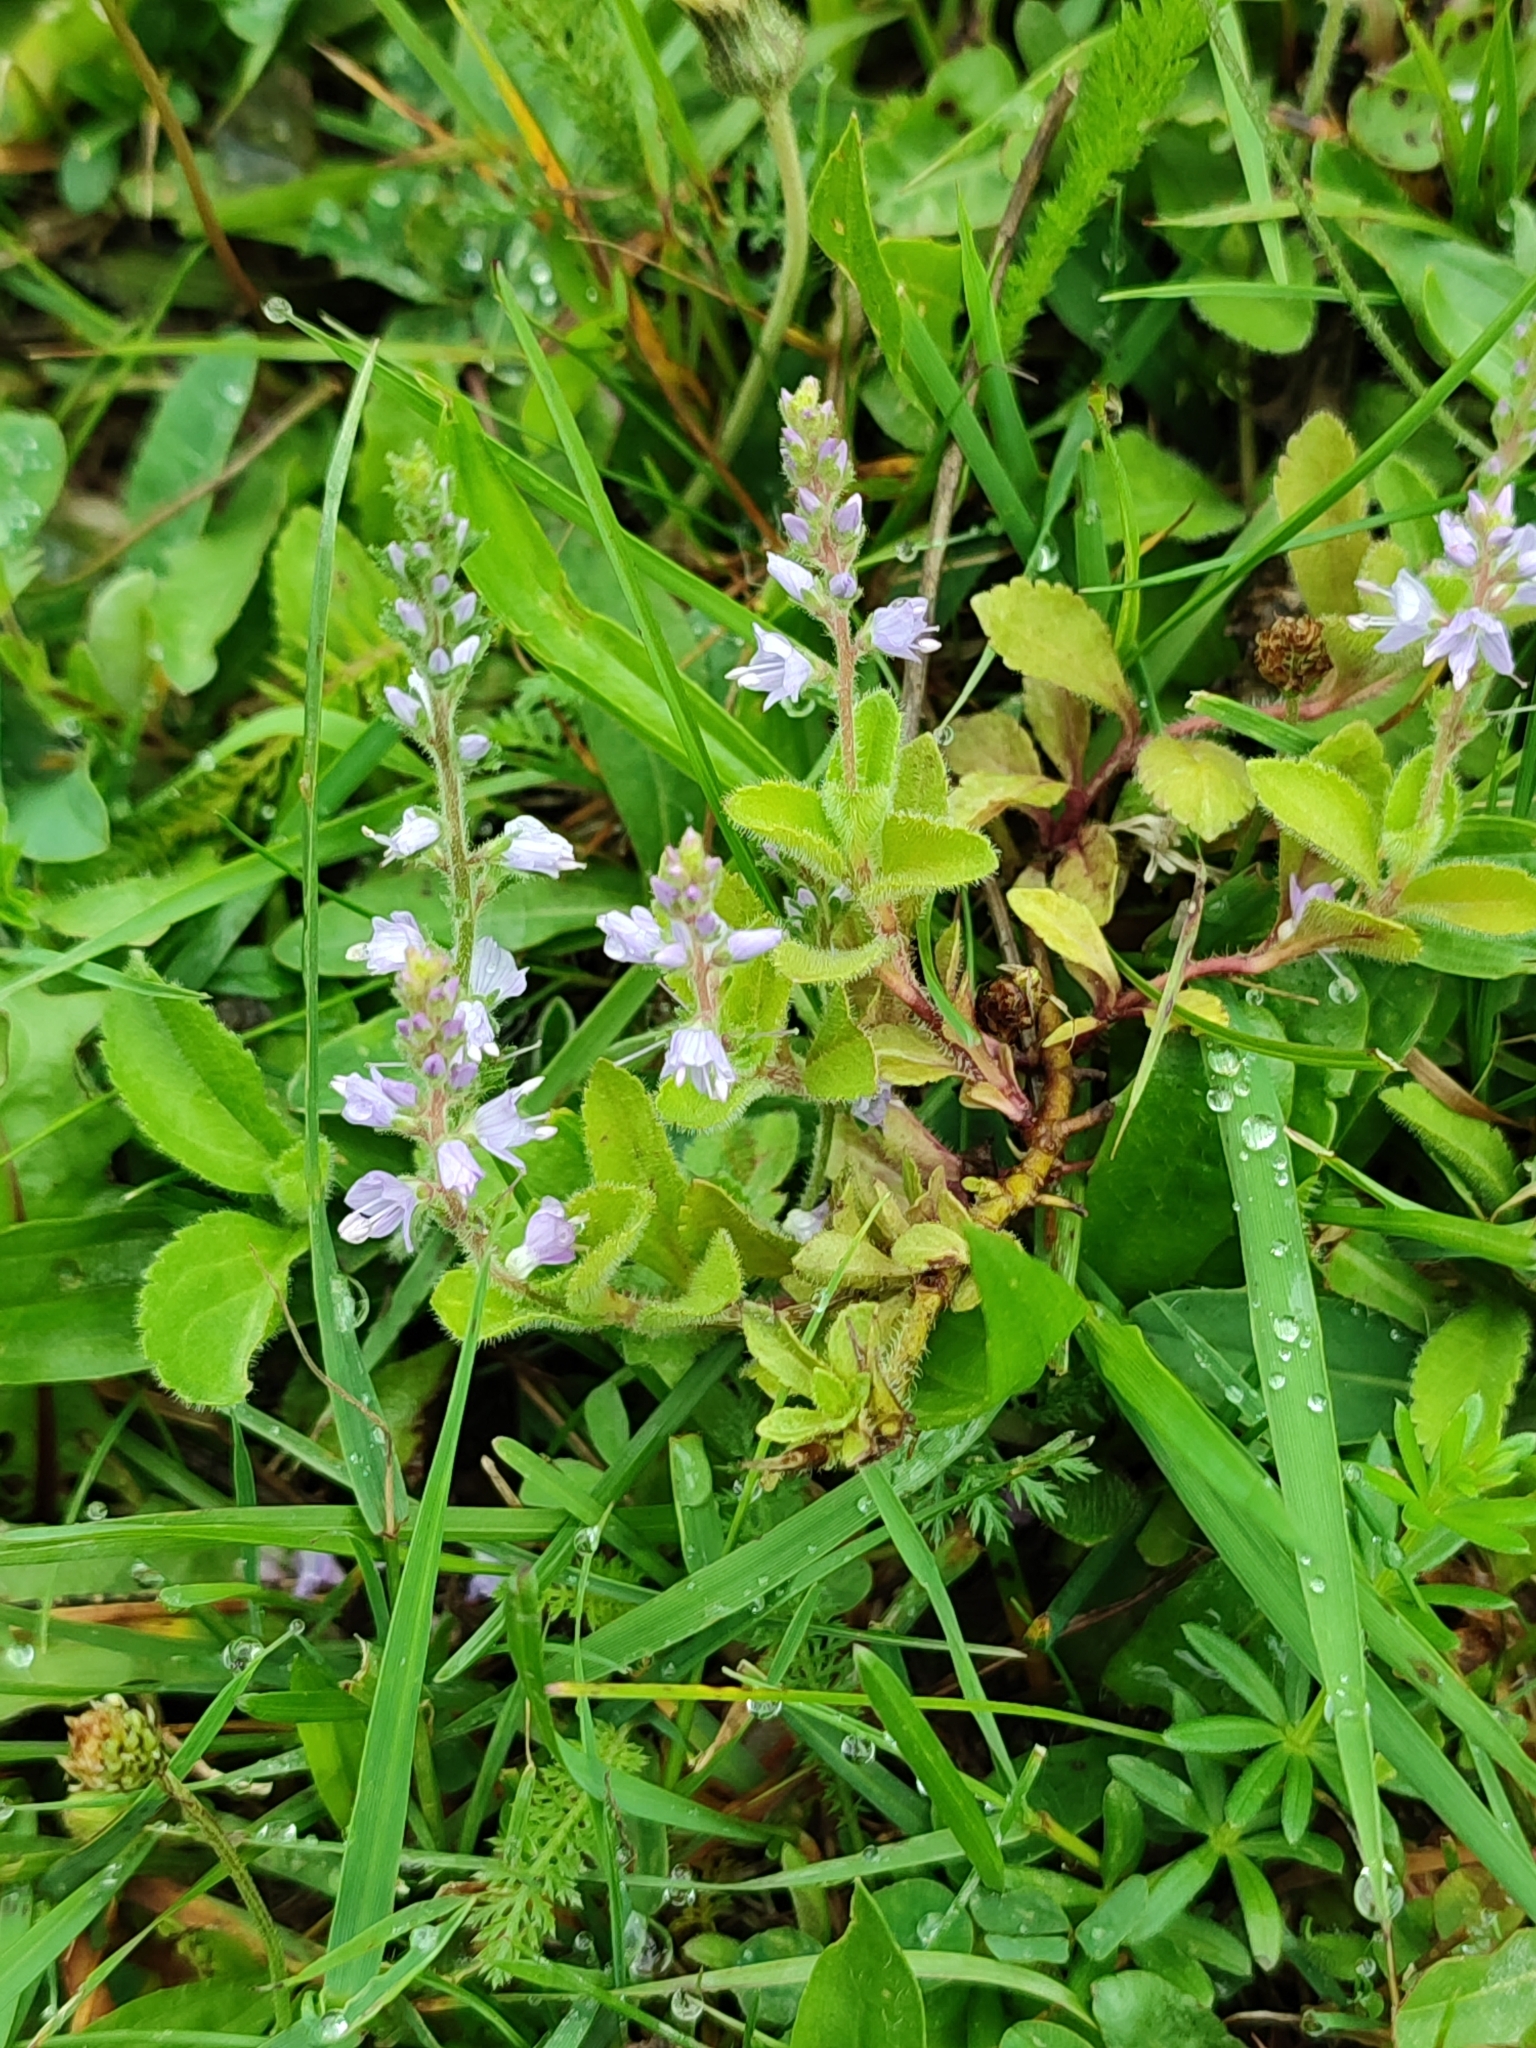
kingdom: Plantae
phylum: Tracheophyta
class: Magnoliopsida
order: Lamiales
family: Plantaginaceae
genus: Veronica
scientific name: Veronica officinalis
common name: Common speedwell
